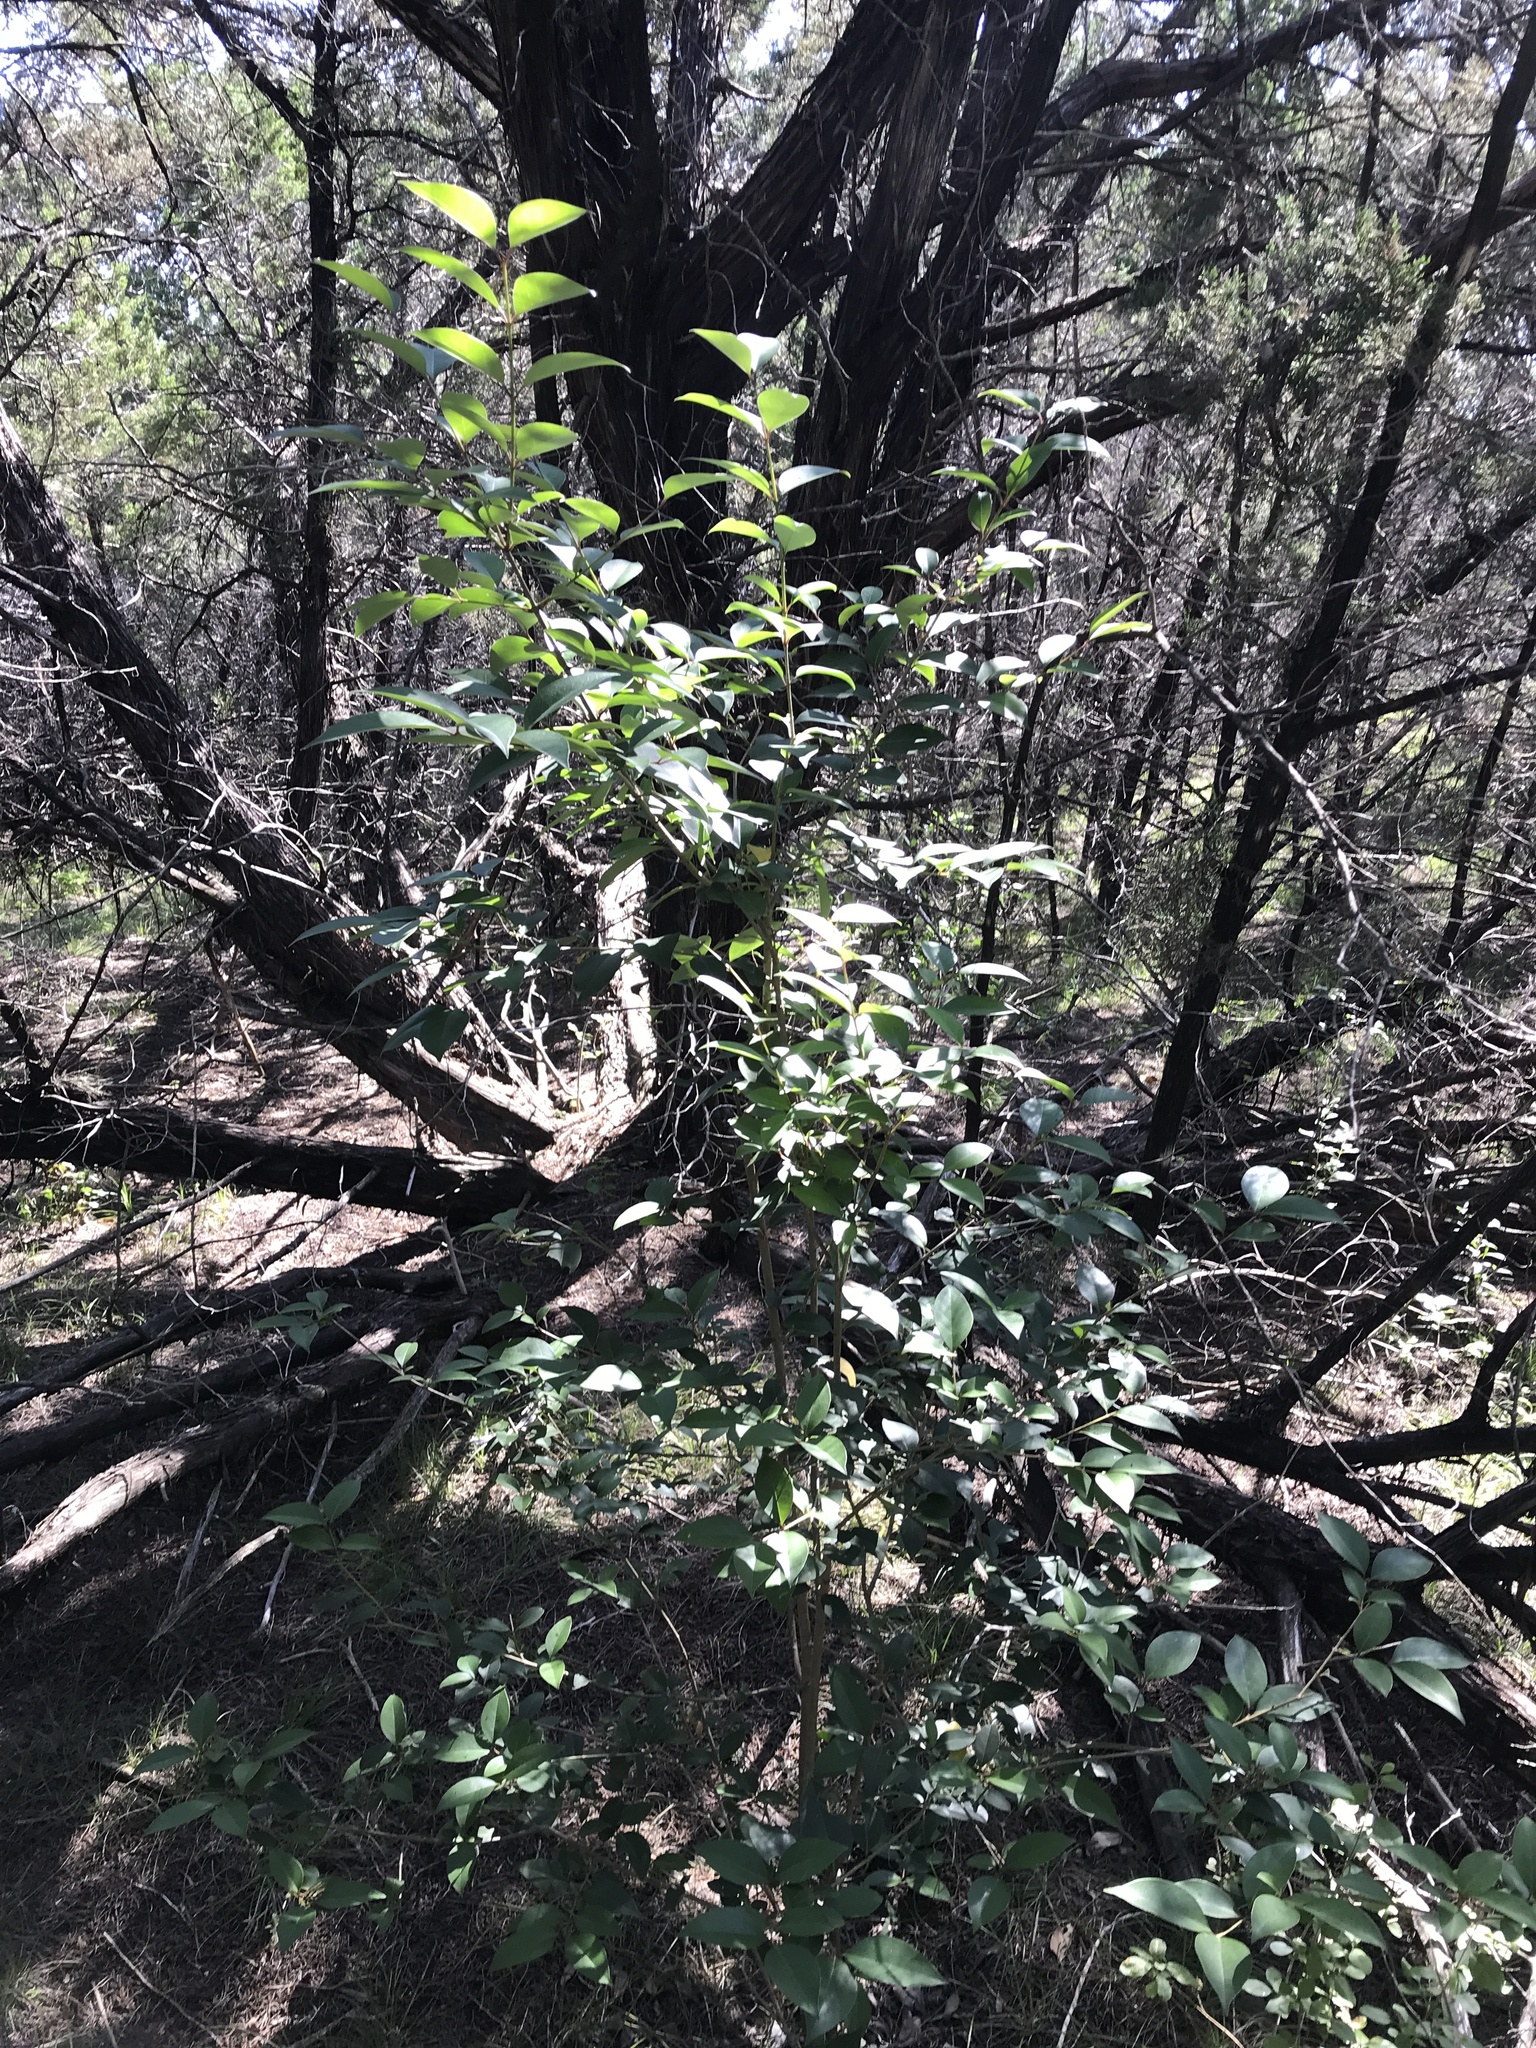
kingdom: Plantae
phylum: Tracheophyta
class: Magnoliopsida
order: Lamiales
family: Oleaceae
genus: Ligustrum
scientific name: Ligustrum lucidum
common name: Glossy privet
